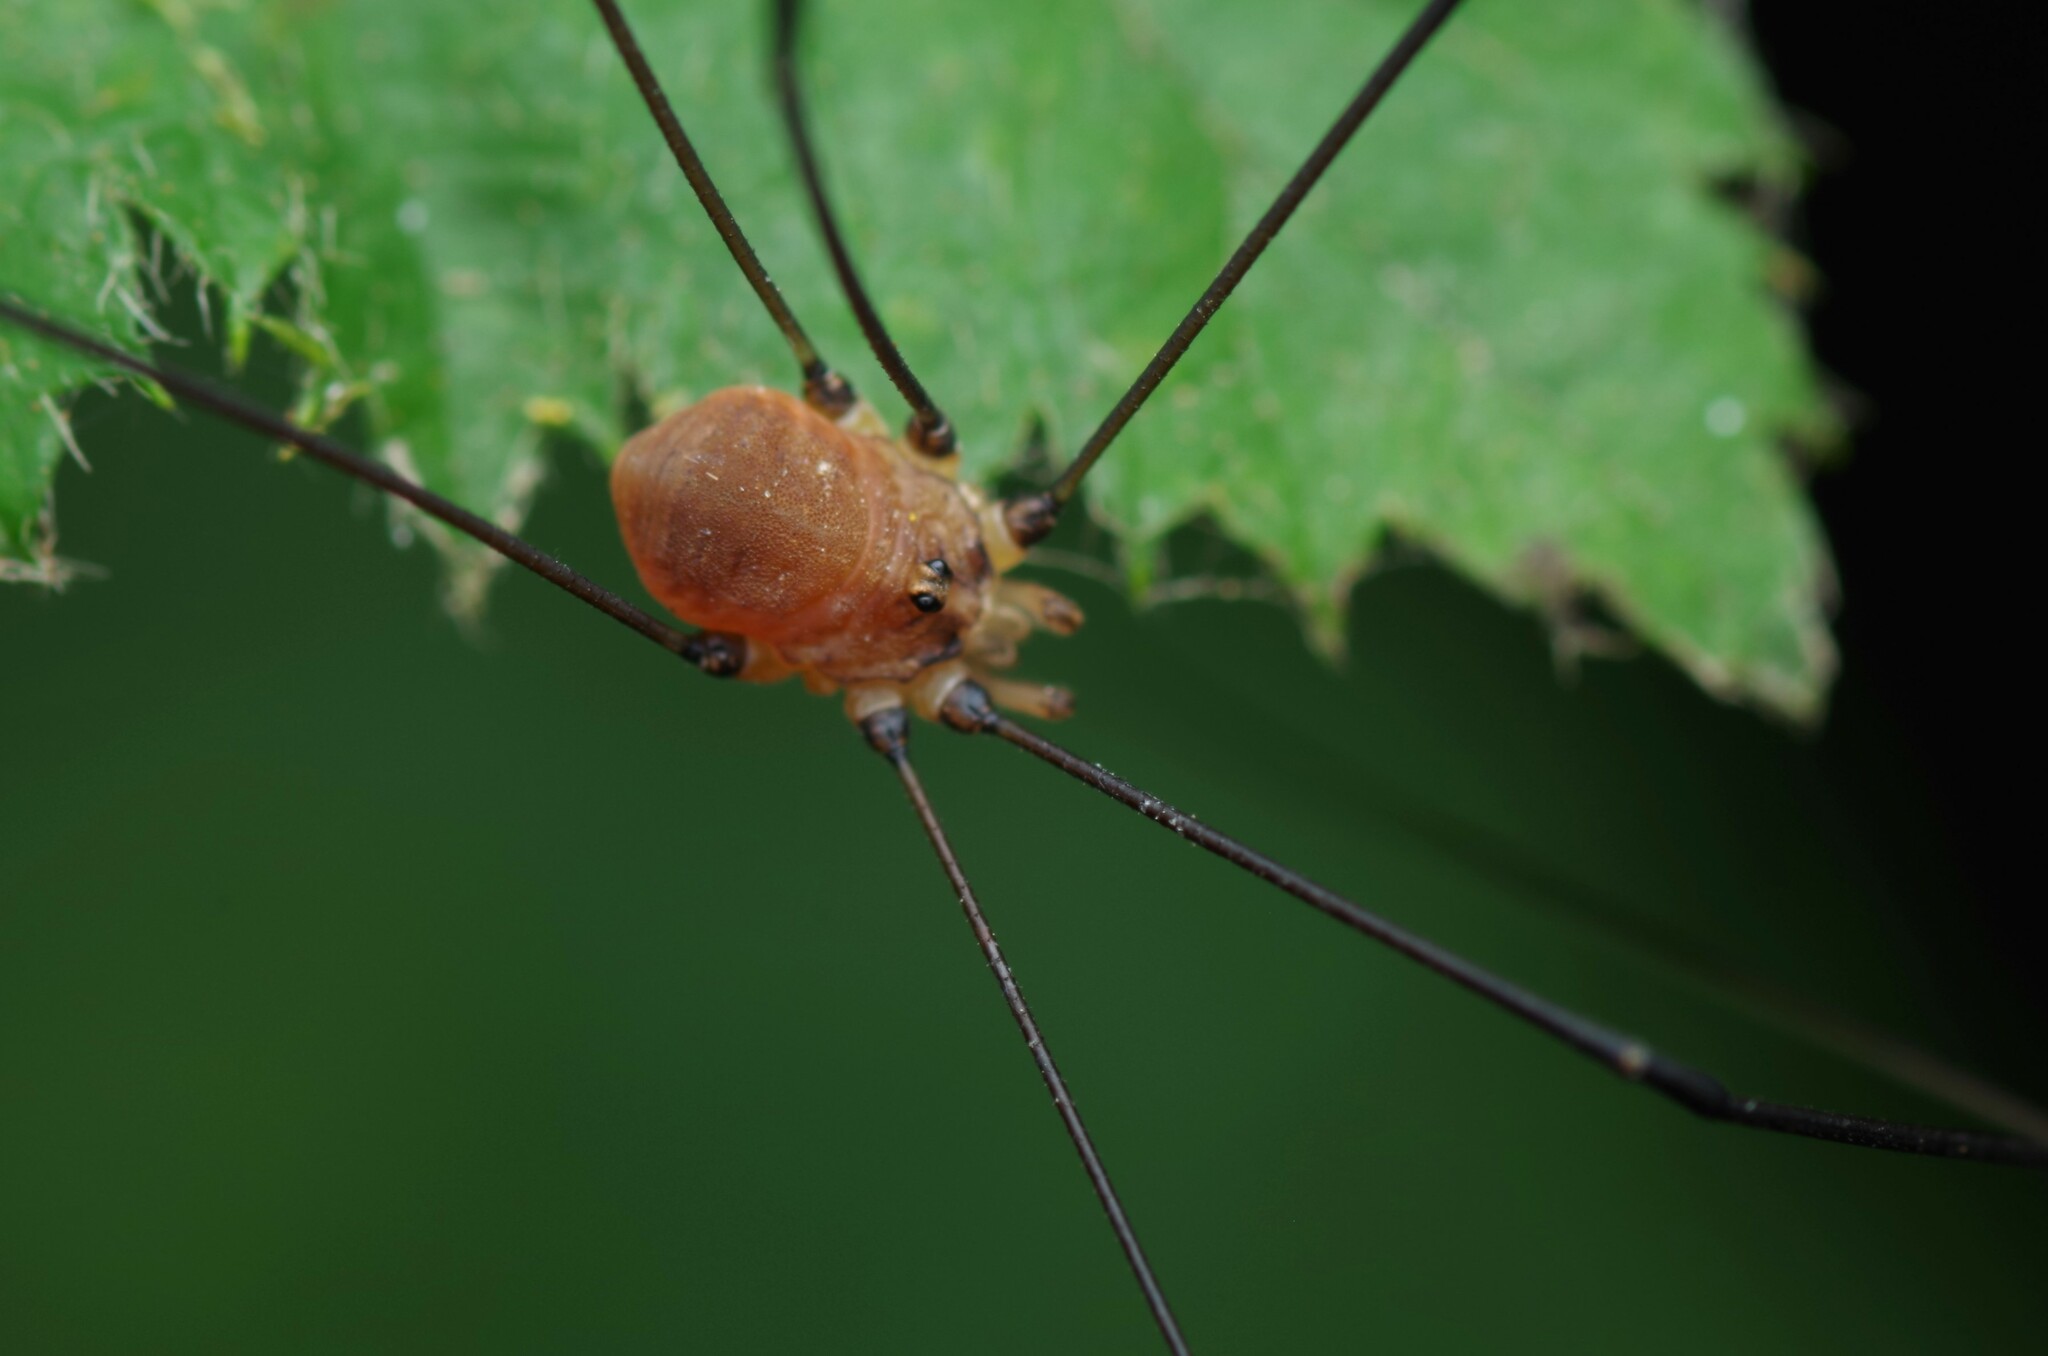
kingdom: Animalia
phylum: Arthropoda
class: Arachnida
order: Opiliones
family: Sclerosomatidae
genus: Leiobunum
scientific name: Leiobunum blackwalli
